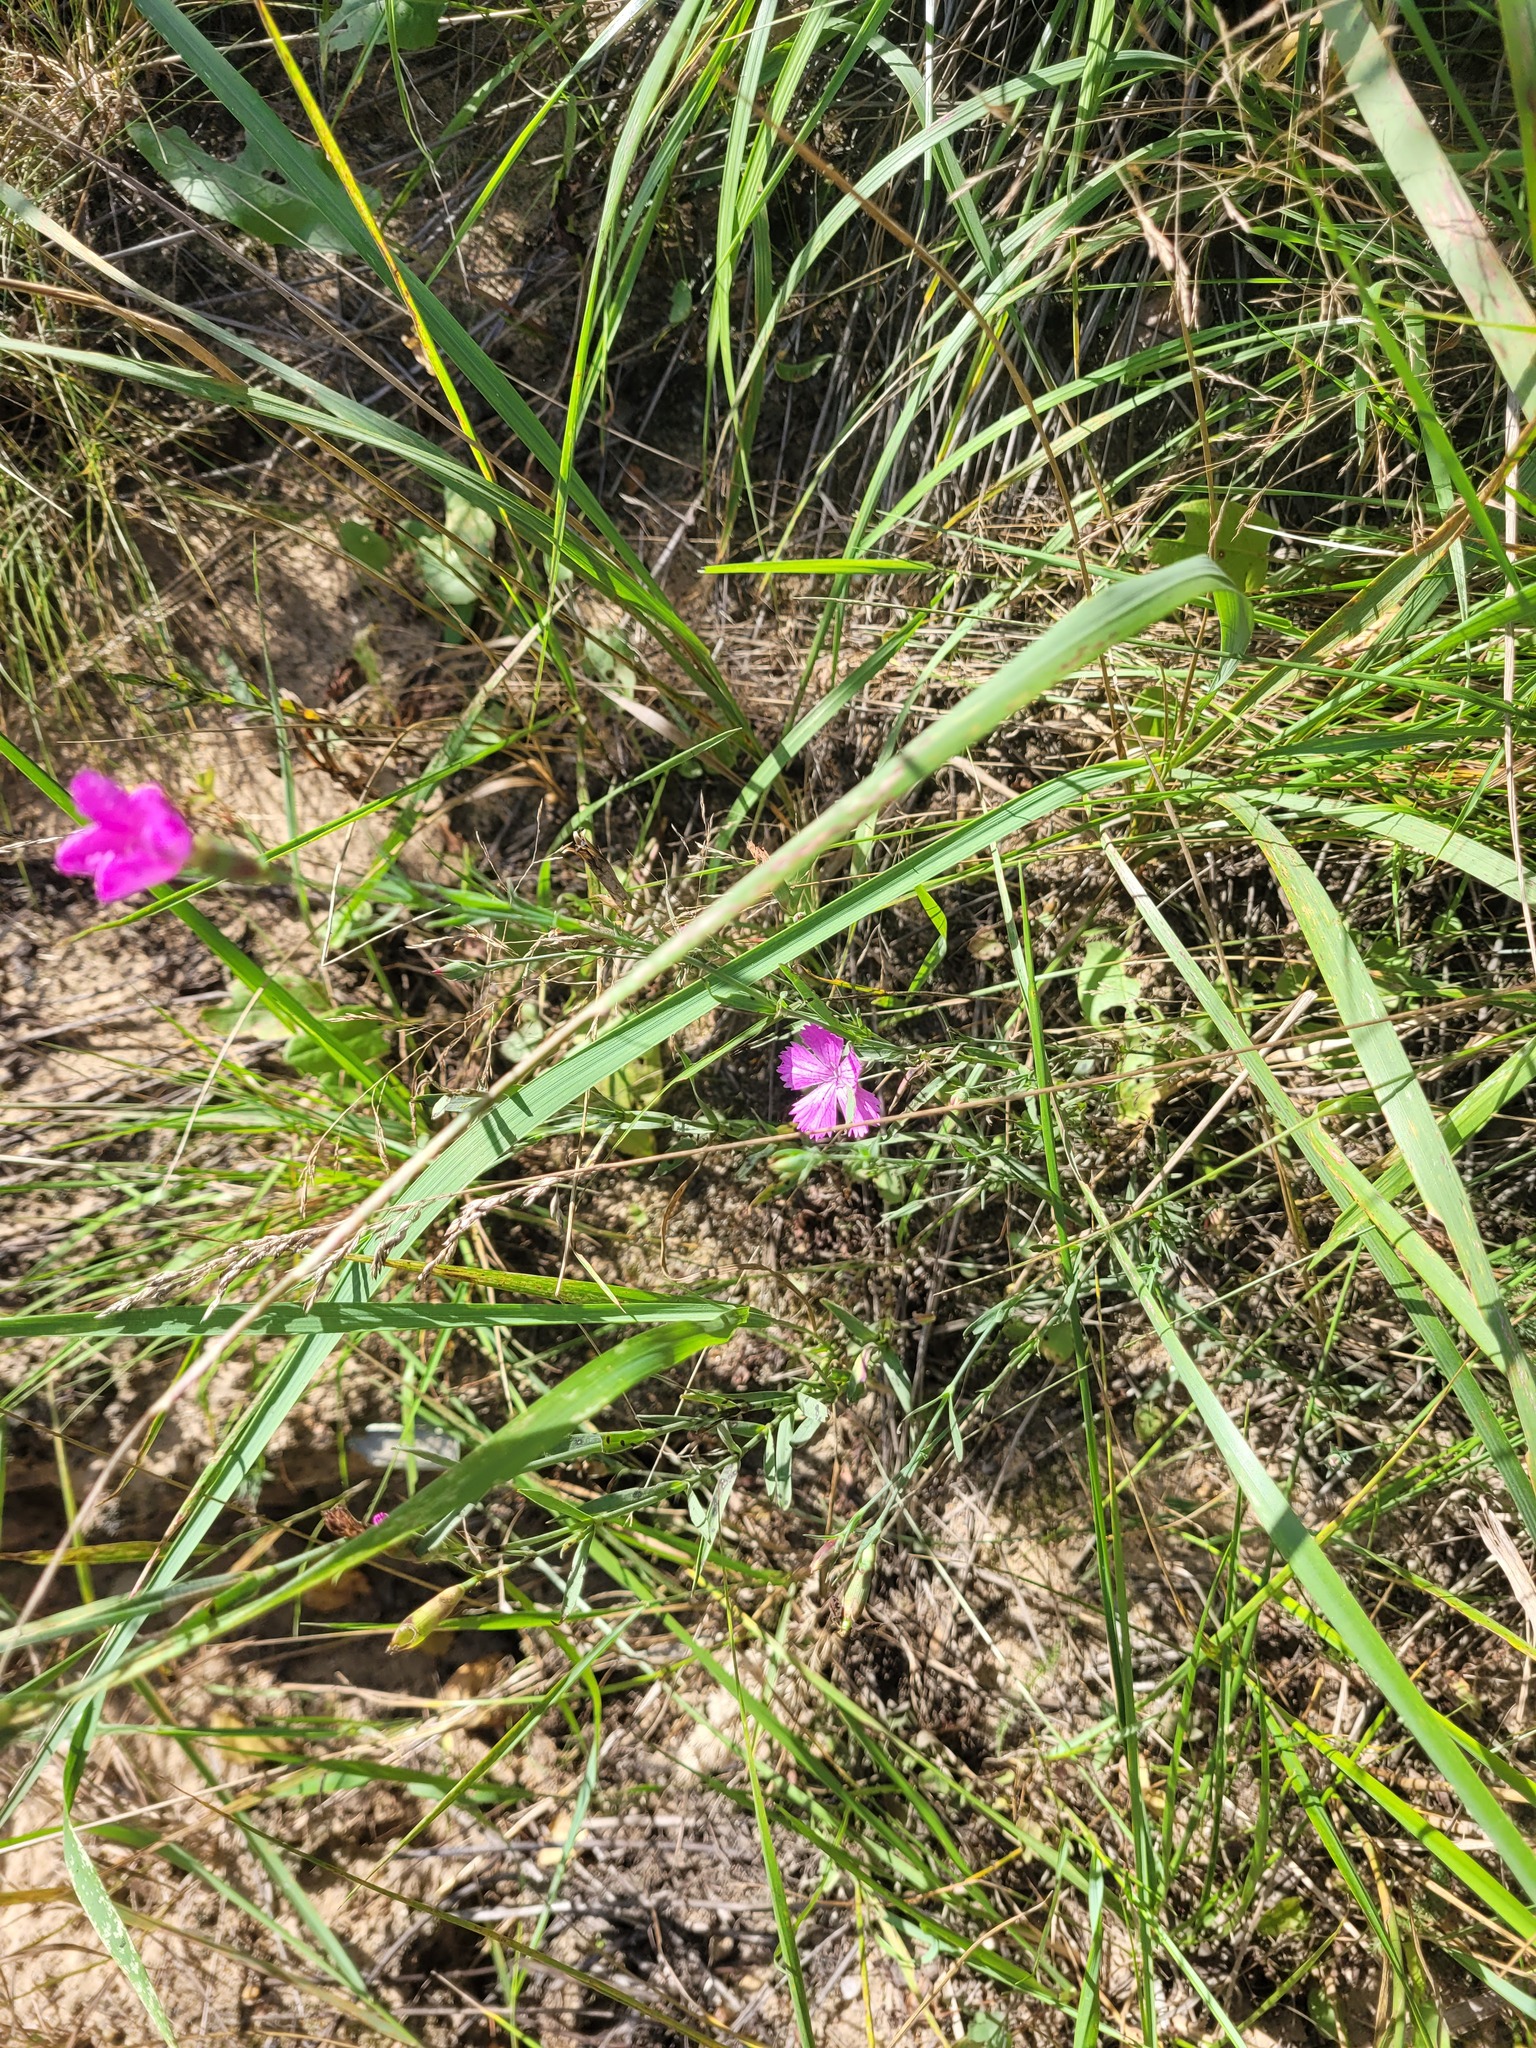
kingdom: Plantae
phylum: Tracheophyta
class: Magnoliopsida
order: Caryophyllales
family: Caryophyllaceae
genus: Dianthus
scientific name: Dianthus chinensis
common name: Rainbow pink
